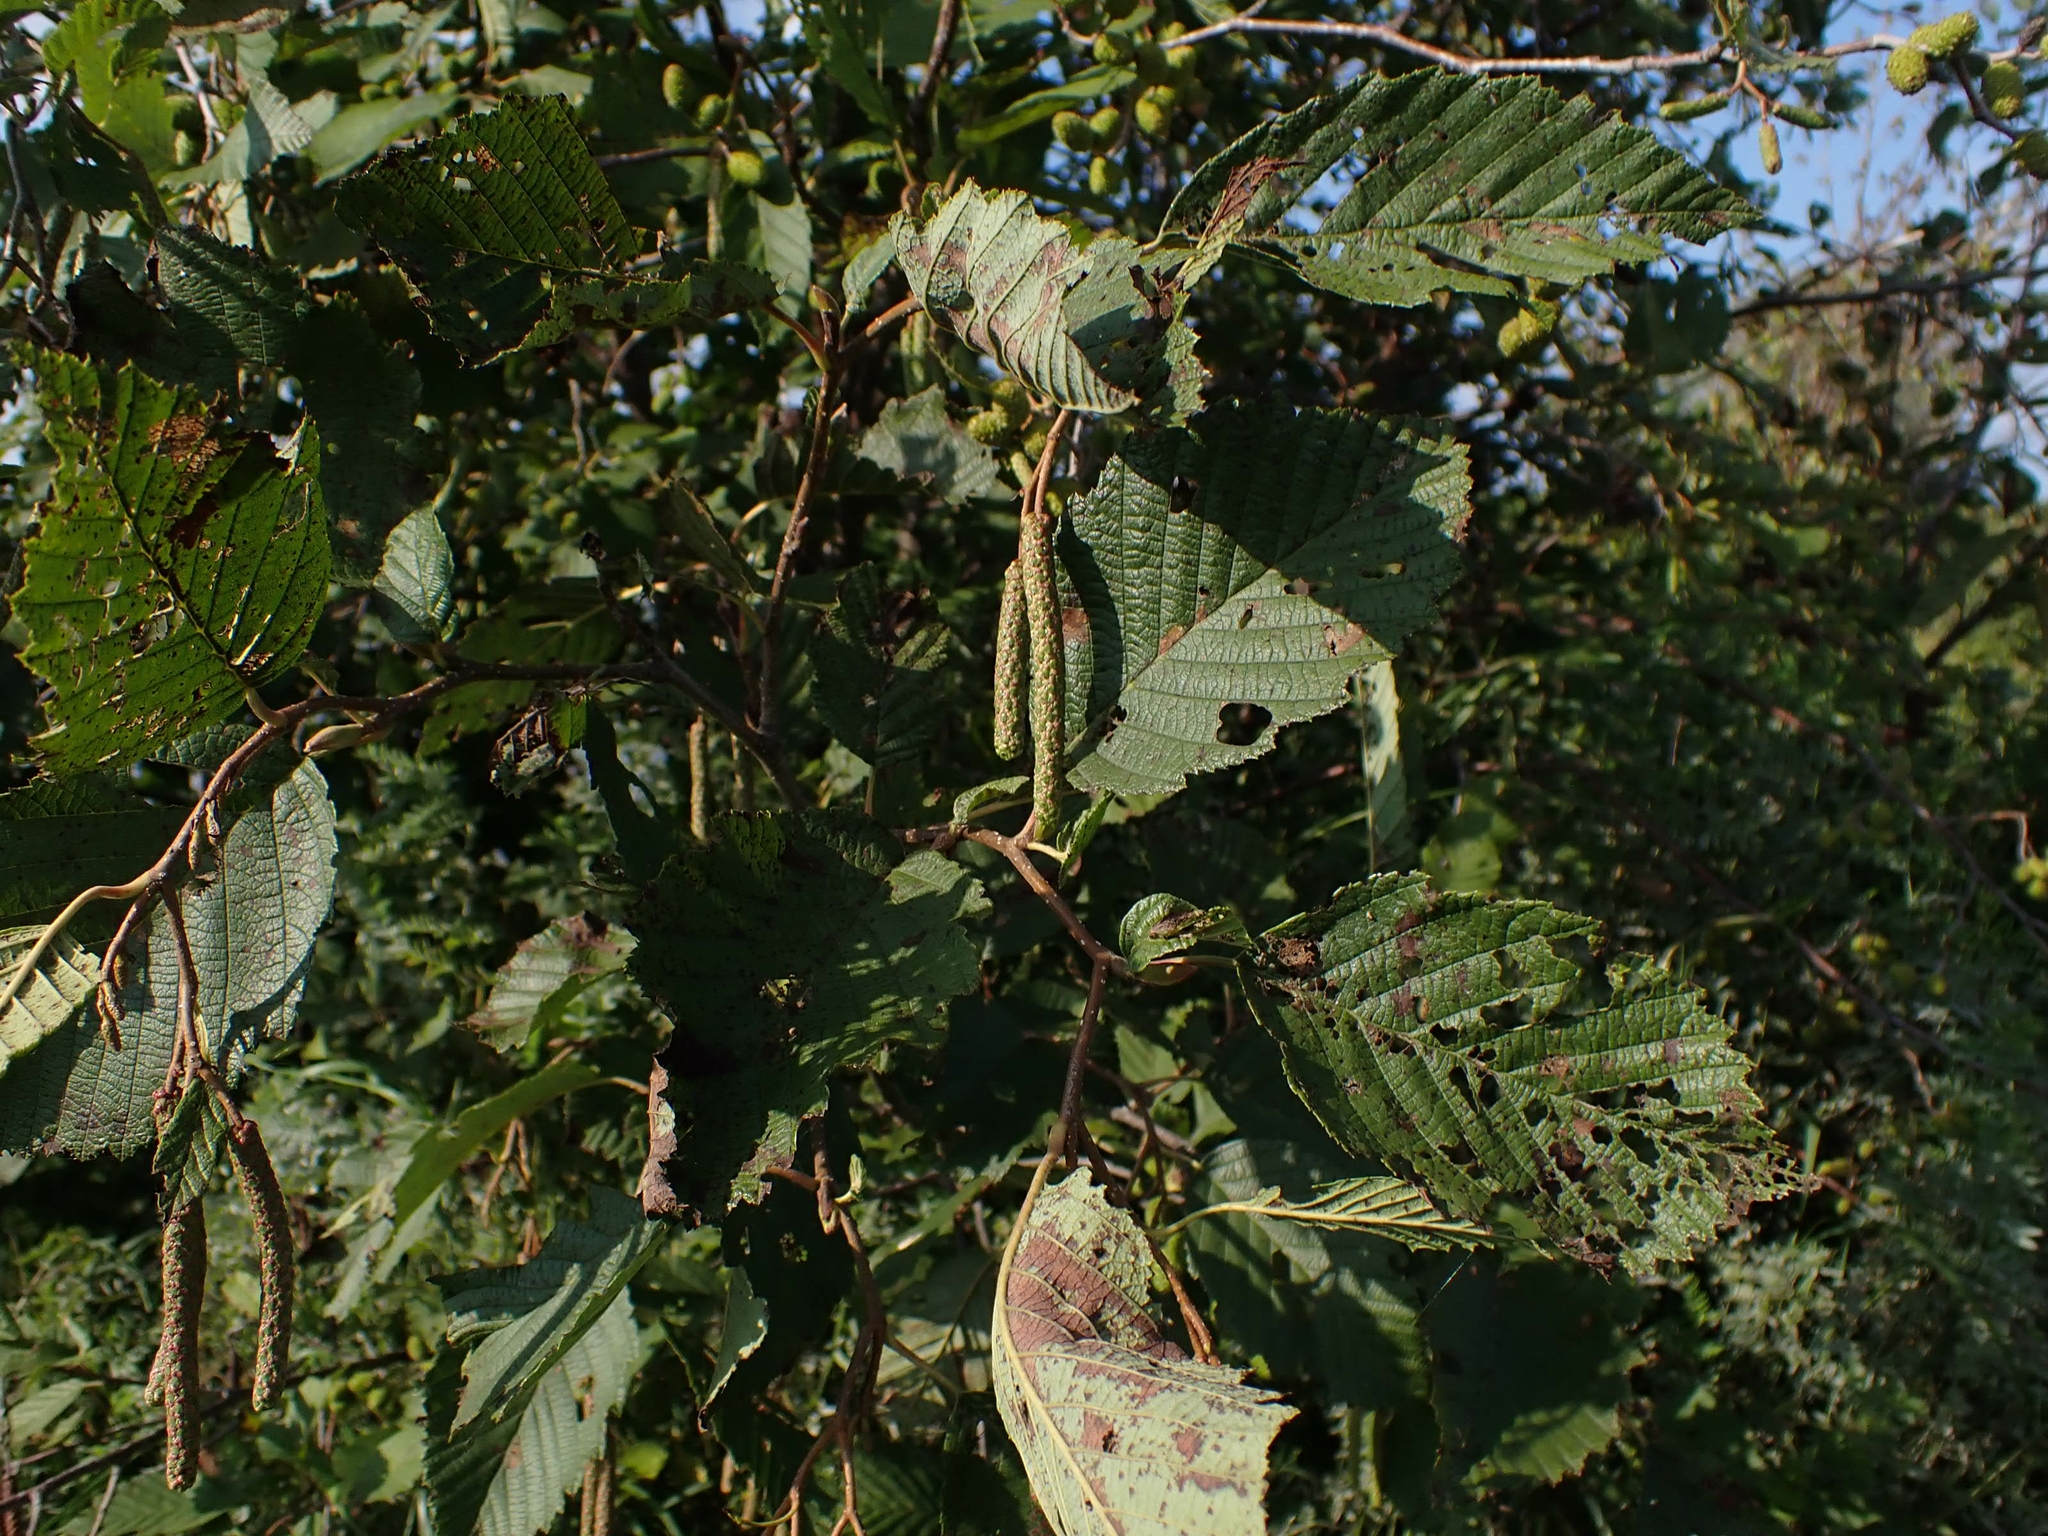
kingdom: Plantae
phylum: Tracheophyta
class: Magnoliopsida
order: Fagales
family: Betulaceae
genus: Alnus
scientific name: Alnus incana
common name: Grey alder
